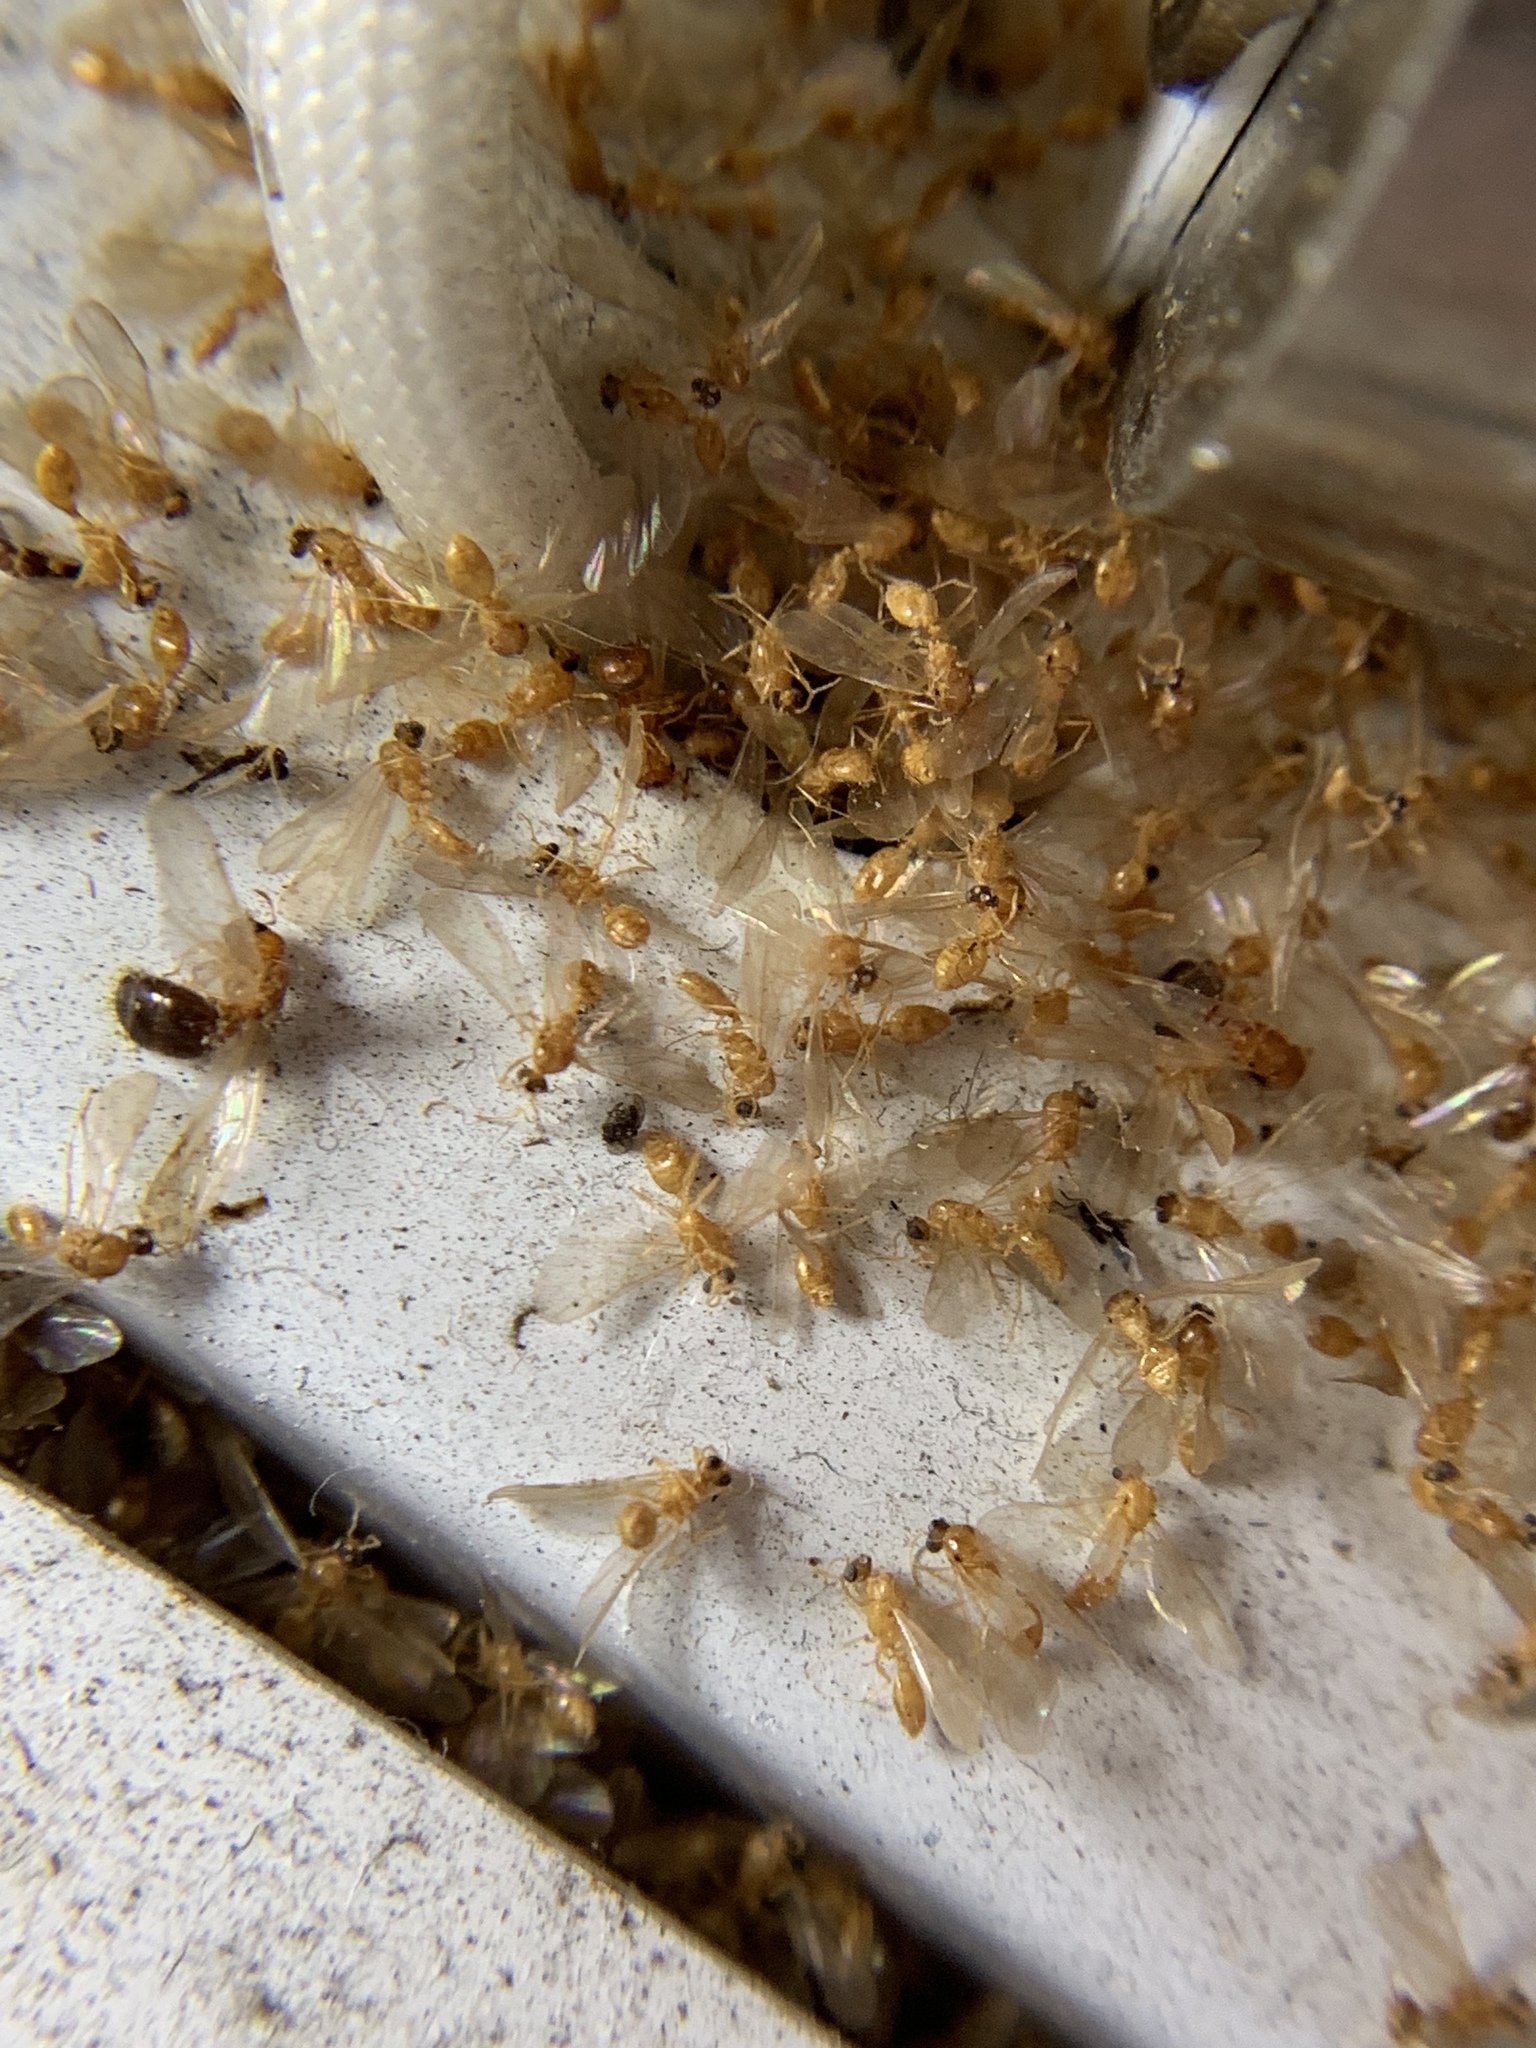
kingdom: Animalia
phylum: Arthropoda
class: Insecta
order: Hymenoptera
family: Formicidae
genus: Pheidole
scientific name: Pheidole parva
